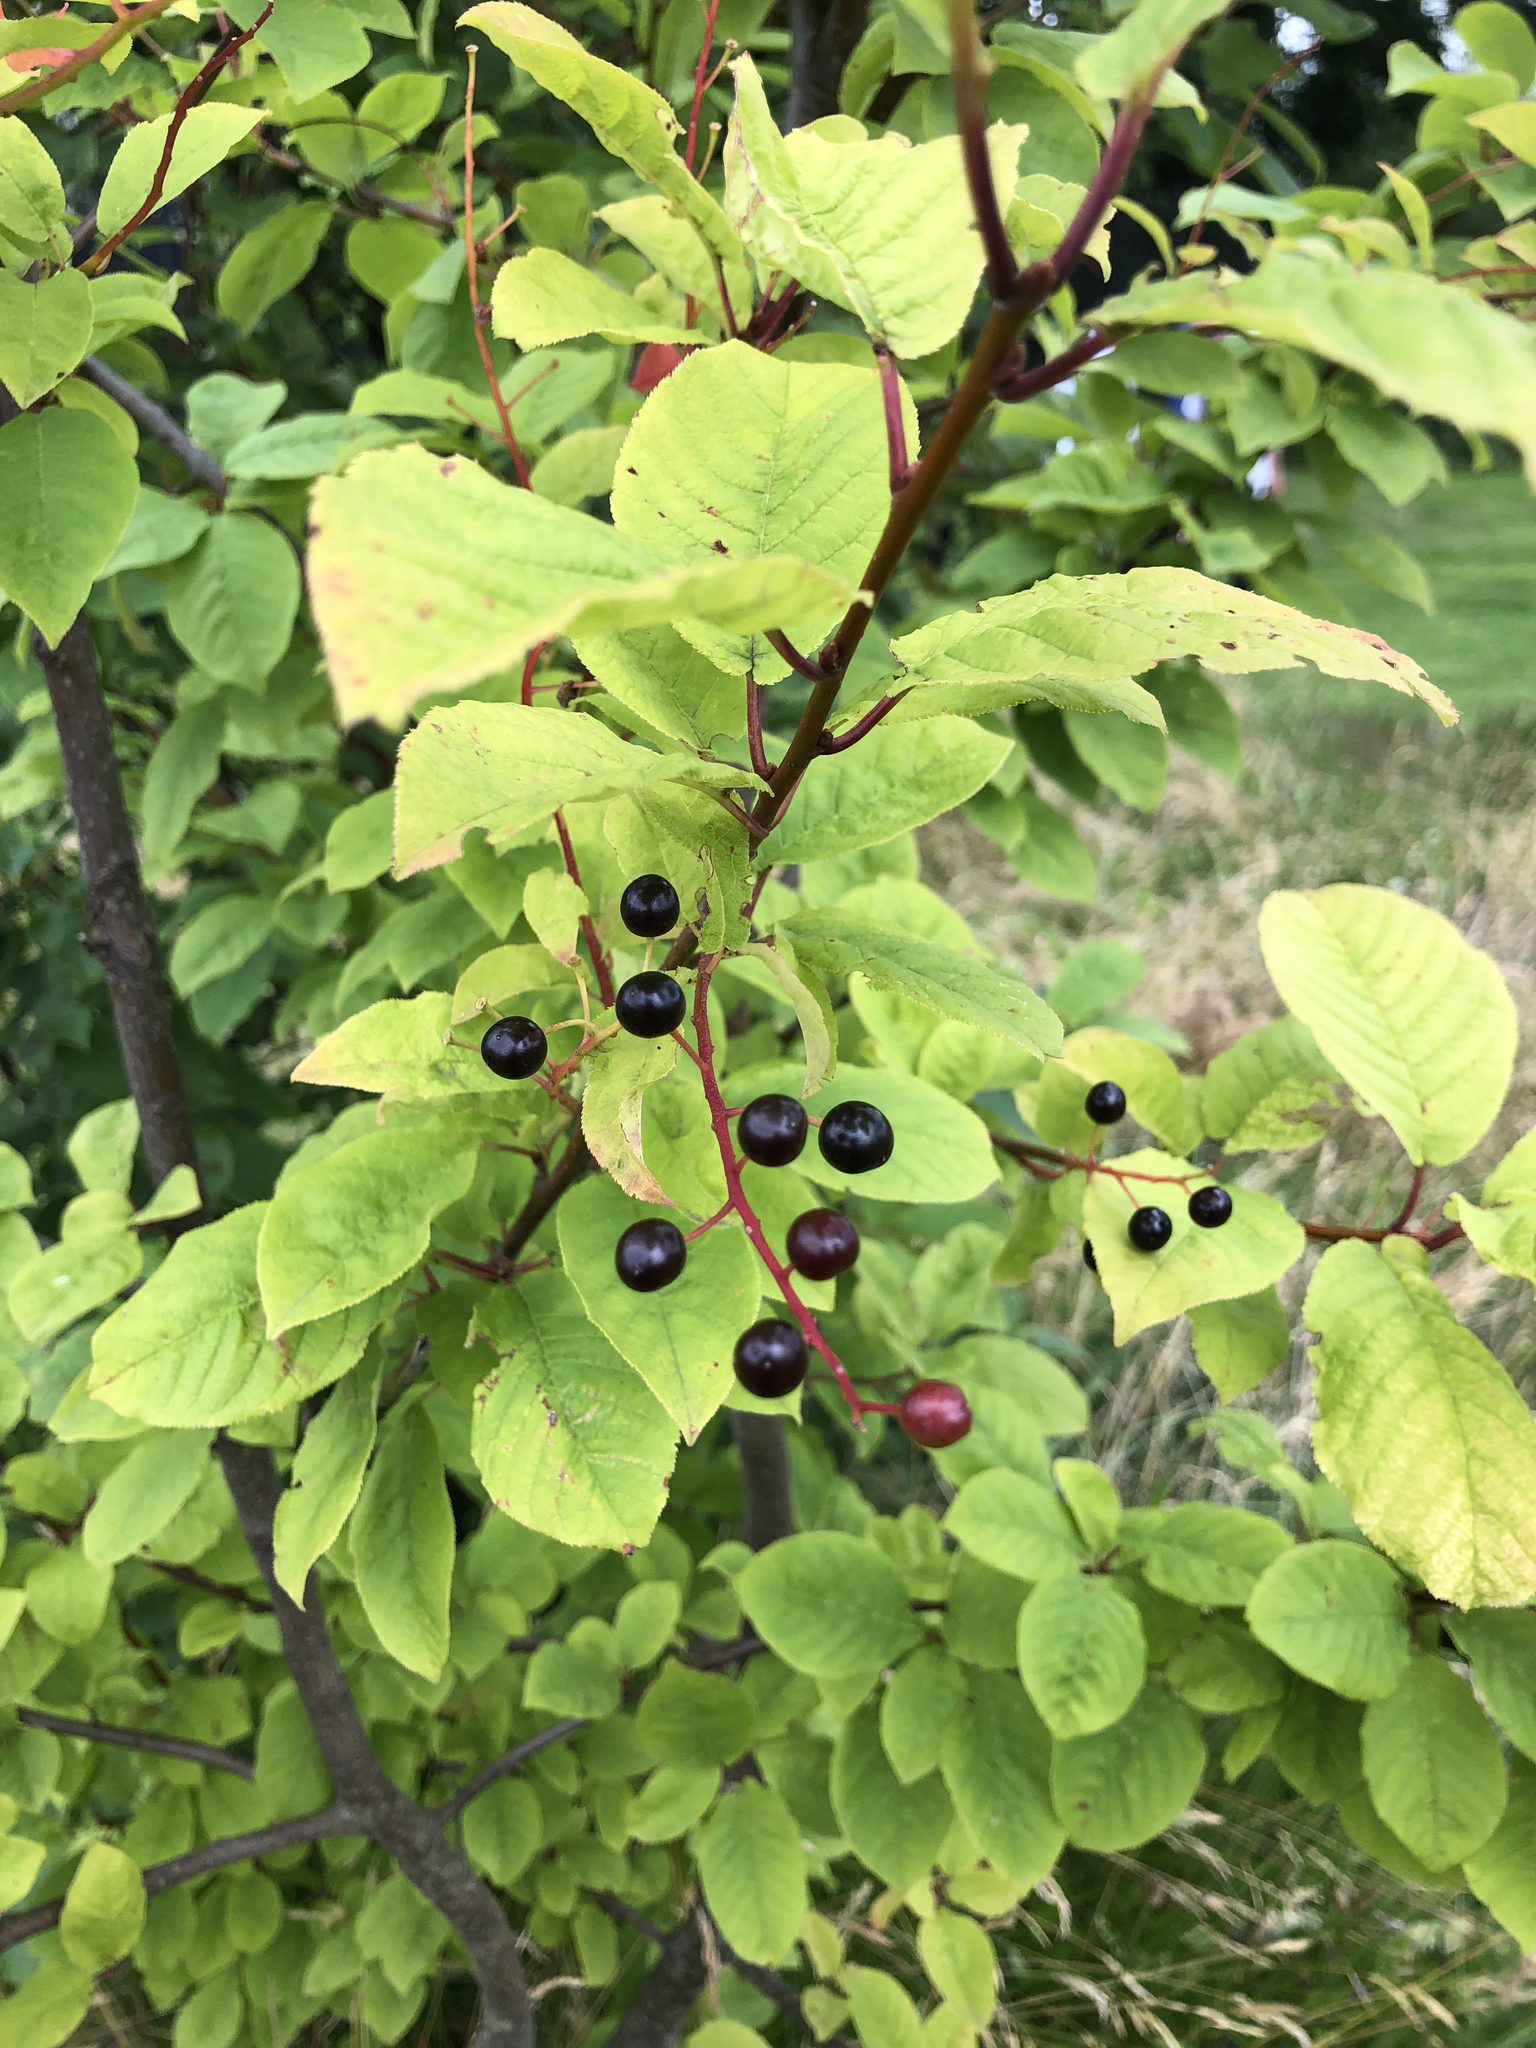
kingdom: Plantae
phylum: Tracheophyta
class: Magnoliopsida
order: Rosales
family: Rhamnaceae
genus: Frangula
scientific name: Frangula alnus
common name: Alder buckthorn
